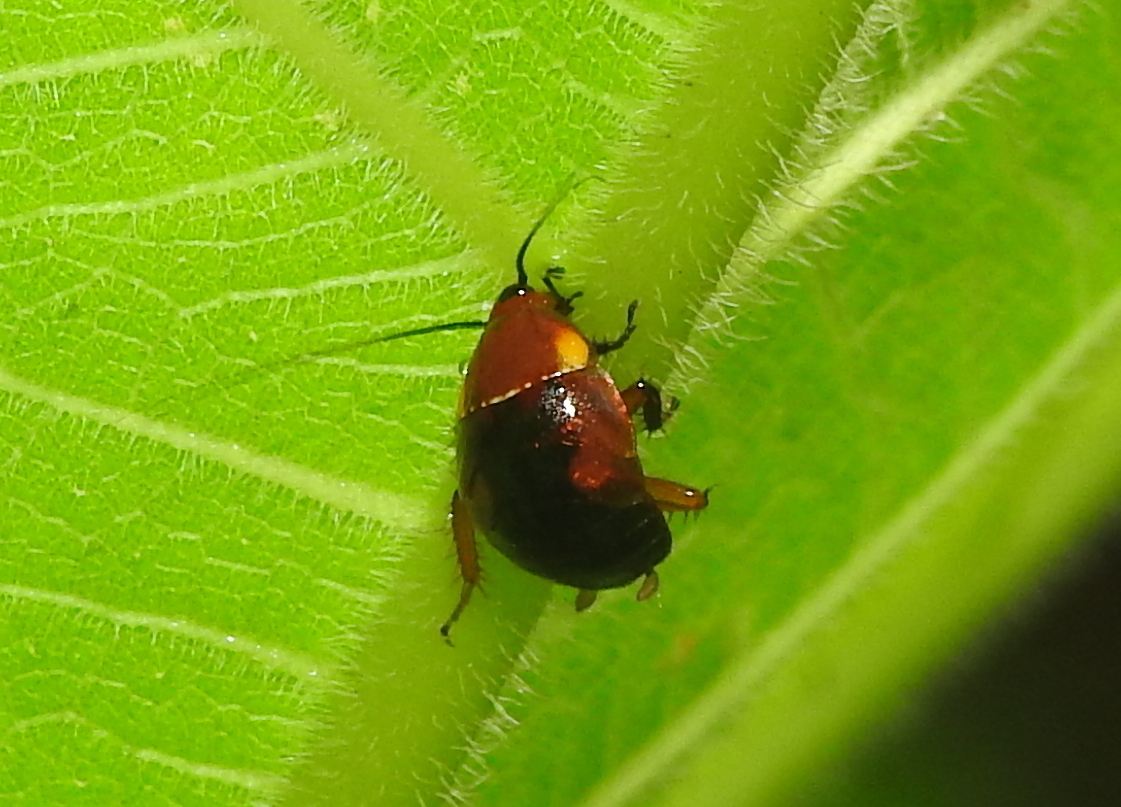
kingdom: Animalia
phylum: Arthropoda
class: Insecta
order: Blattodea
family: Ectobiidae
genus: Hemithyrsocera
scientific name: Hemithyrsocera palliata
